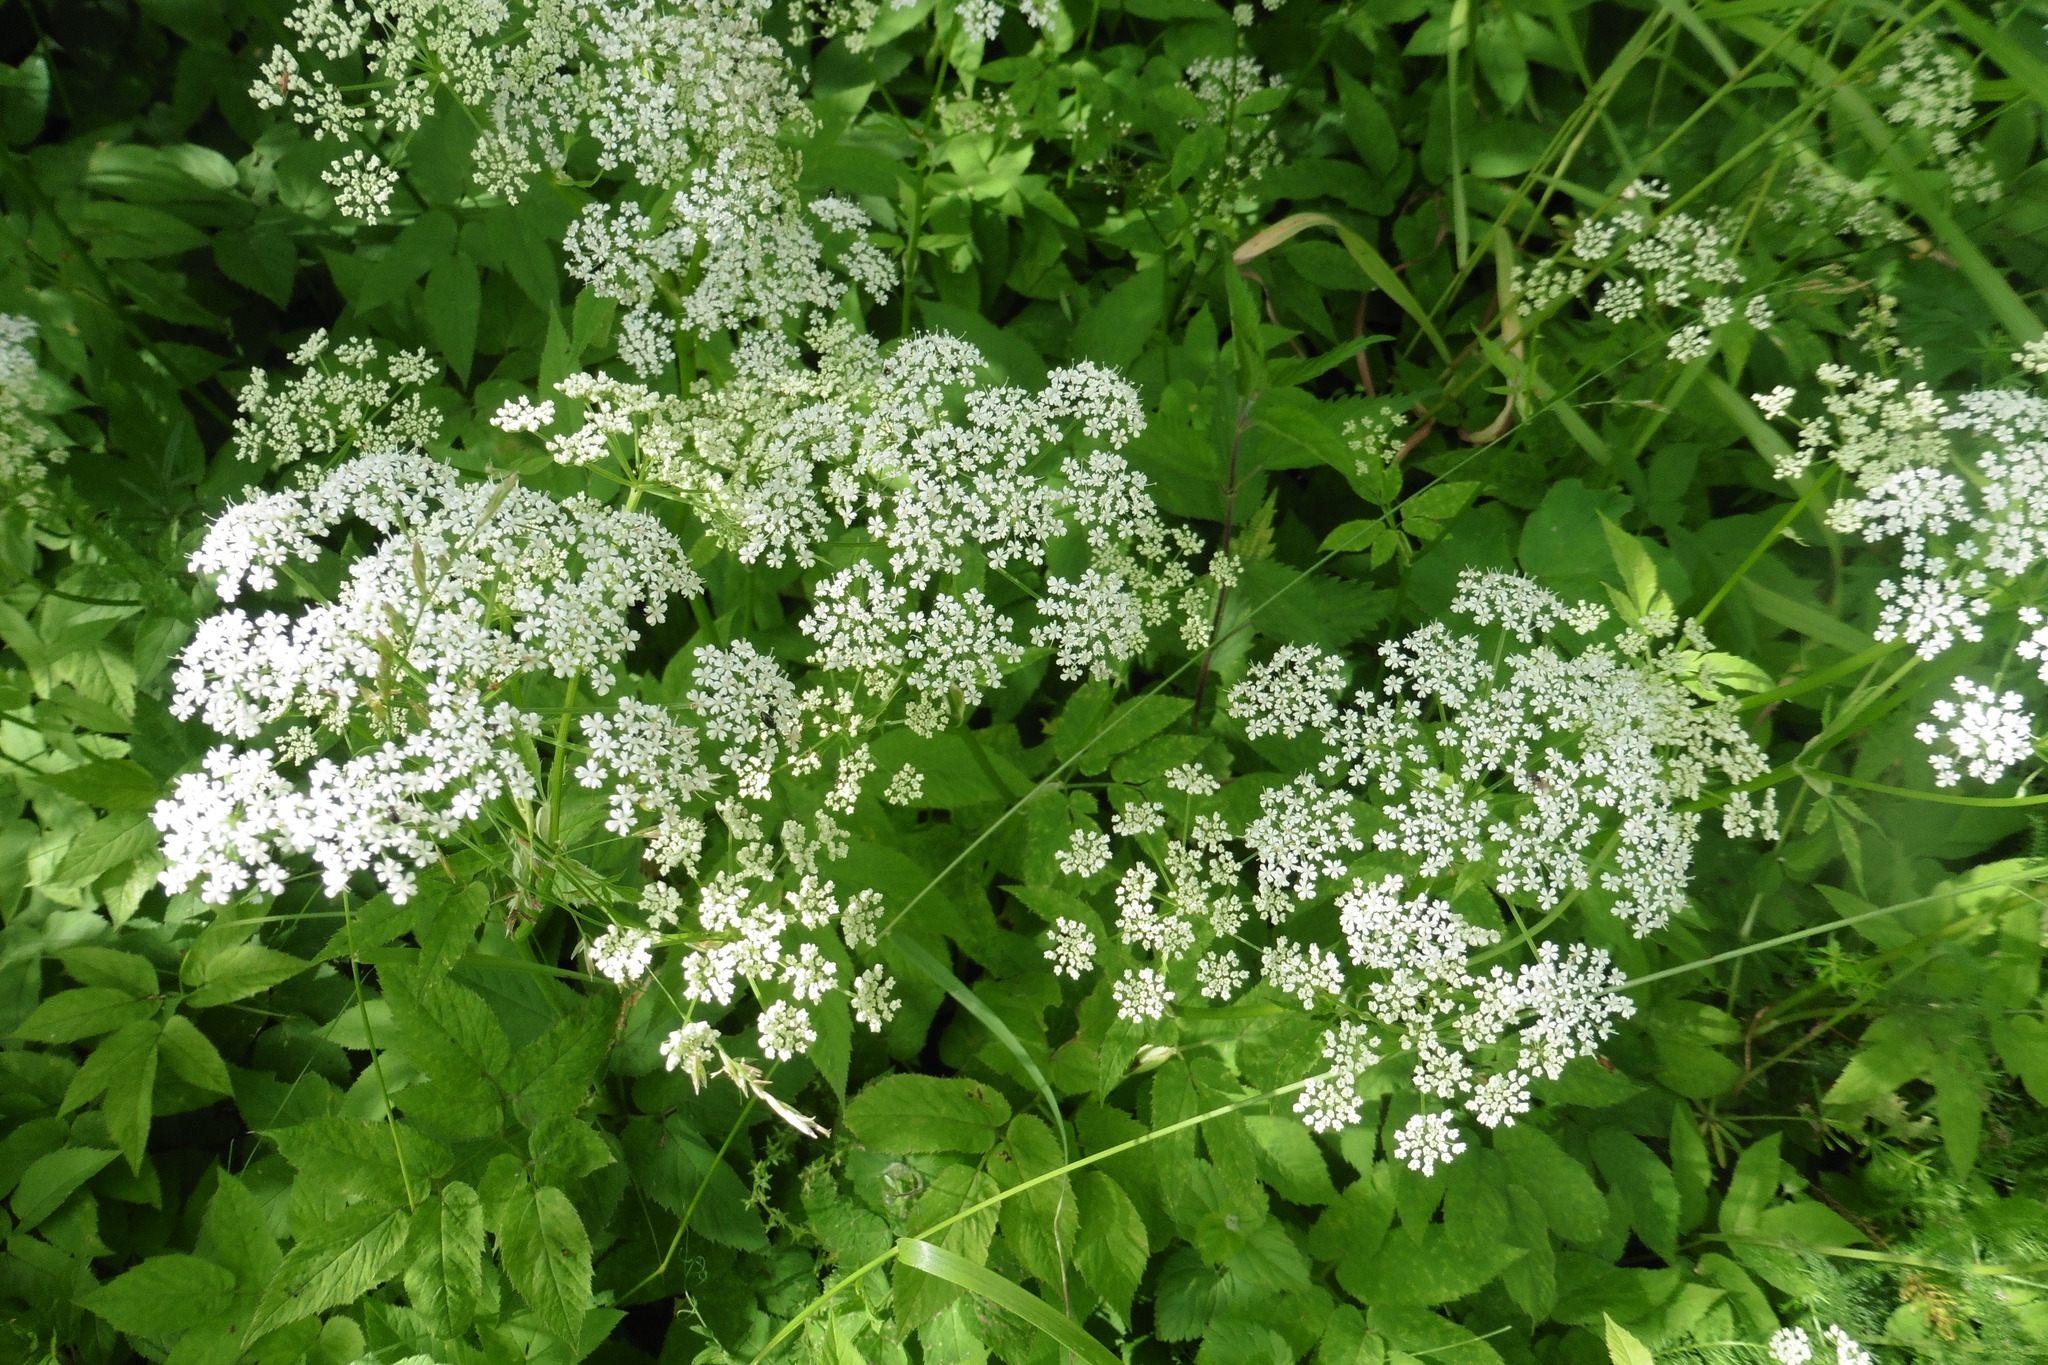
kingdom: Plantae
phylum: Tracheophyta
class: Magnoliopsida
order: Apiales
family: Apiaceae
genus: Aegopodium
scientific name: Aegopodium podagraria
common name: Ground-elder
